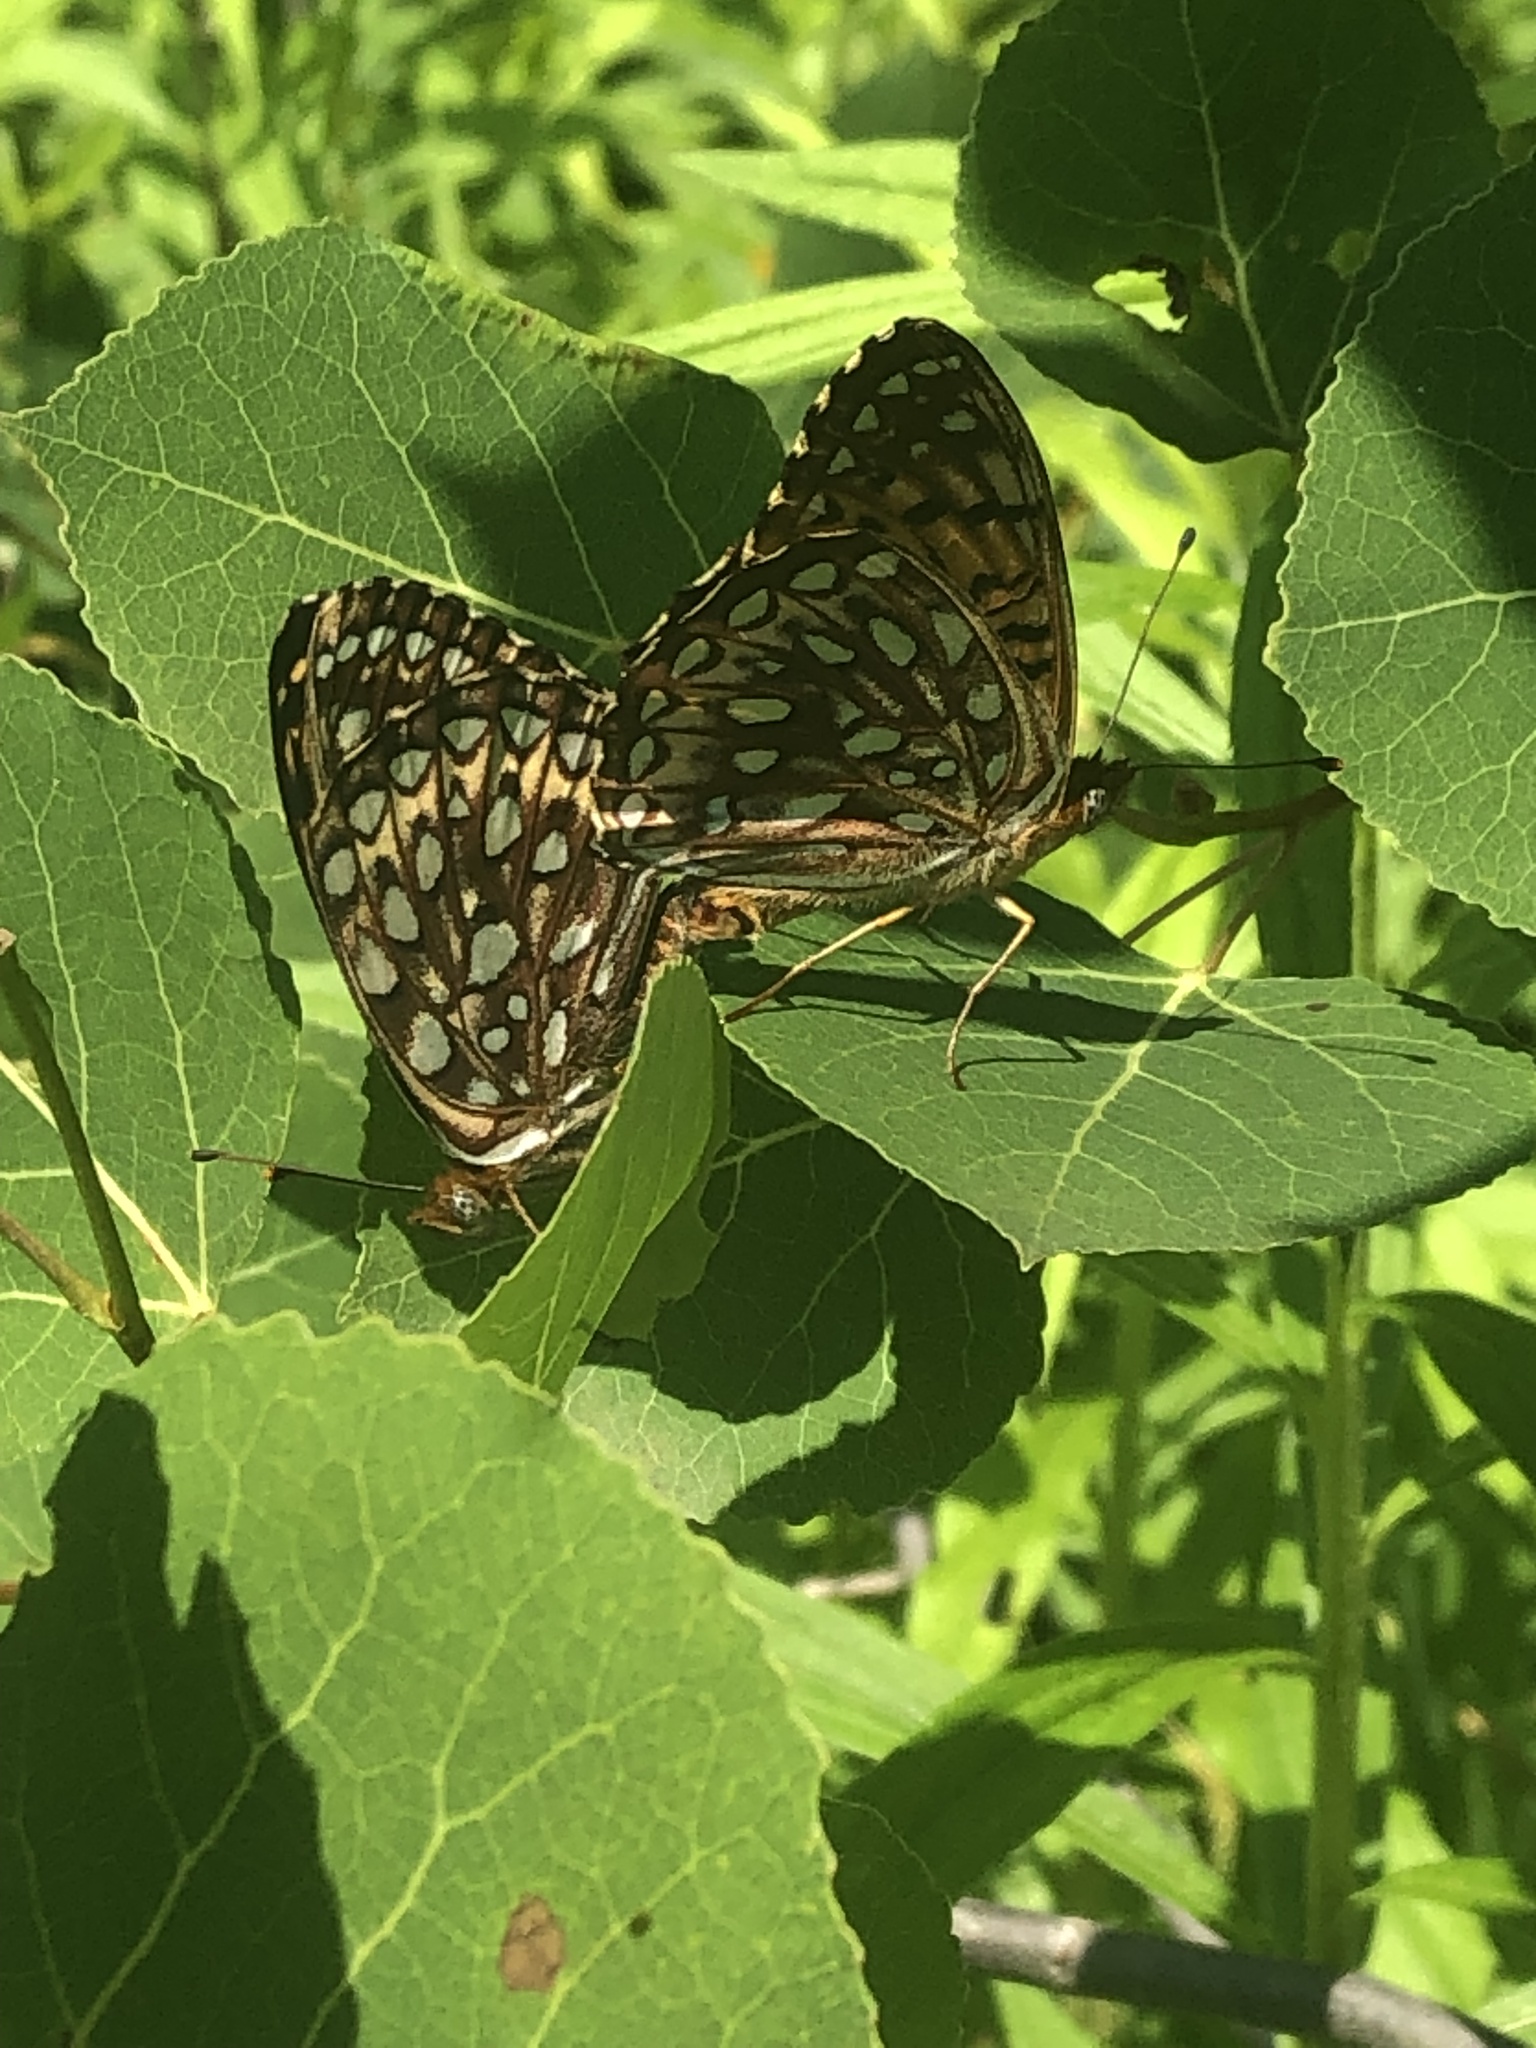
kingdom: Animalia
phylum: Arthropoda
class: Insecta
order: Lepidoptera
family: Nymphalidae
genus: Speyeria
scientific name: Speyeria atlantis
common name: Atlantis fritillary
